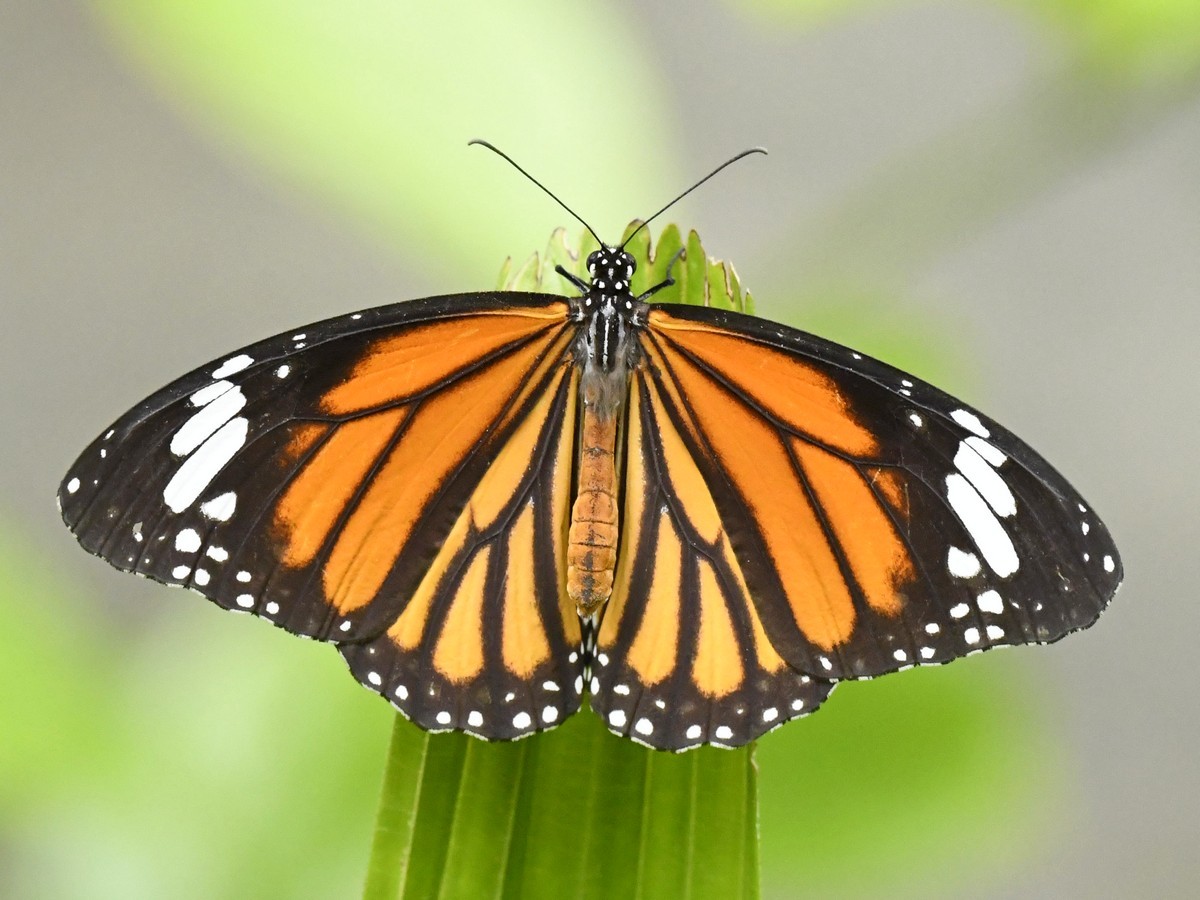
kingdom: Animalia
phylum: Arthropoda
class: Insecta
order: Lepidoptera
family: Nymphalidae
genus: Danaus
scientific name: Danaus genutia
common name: Common tiger butterfly
